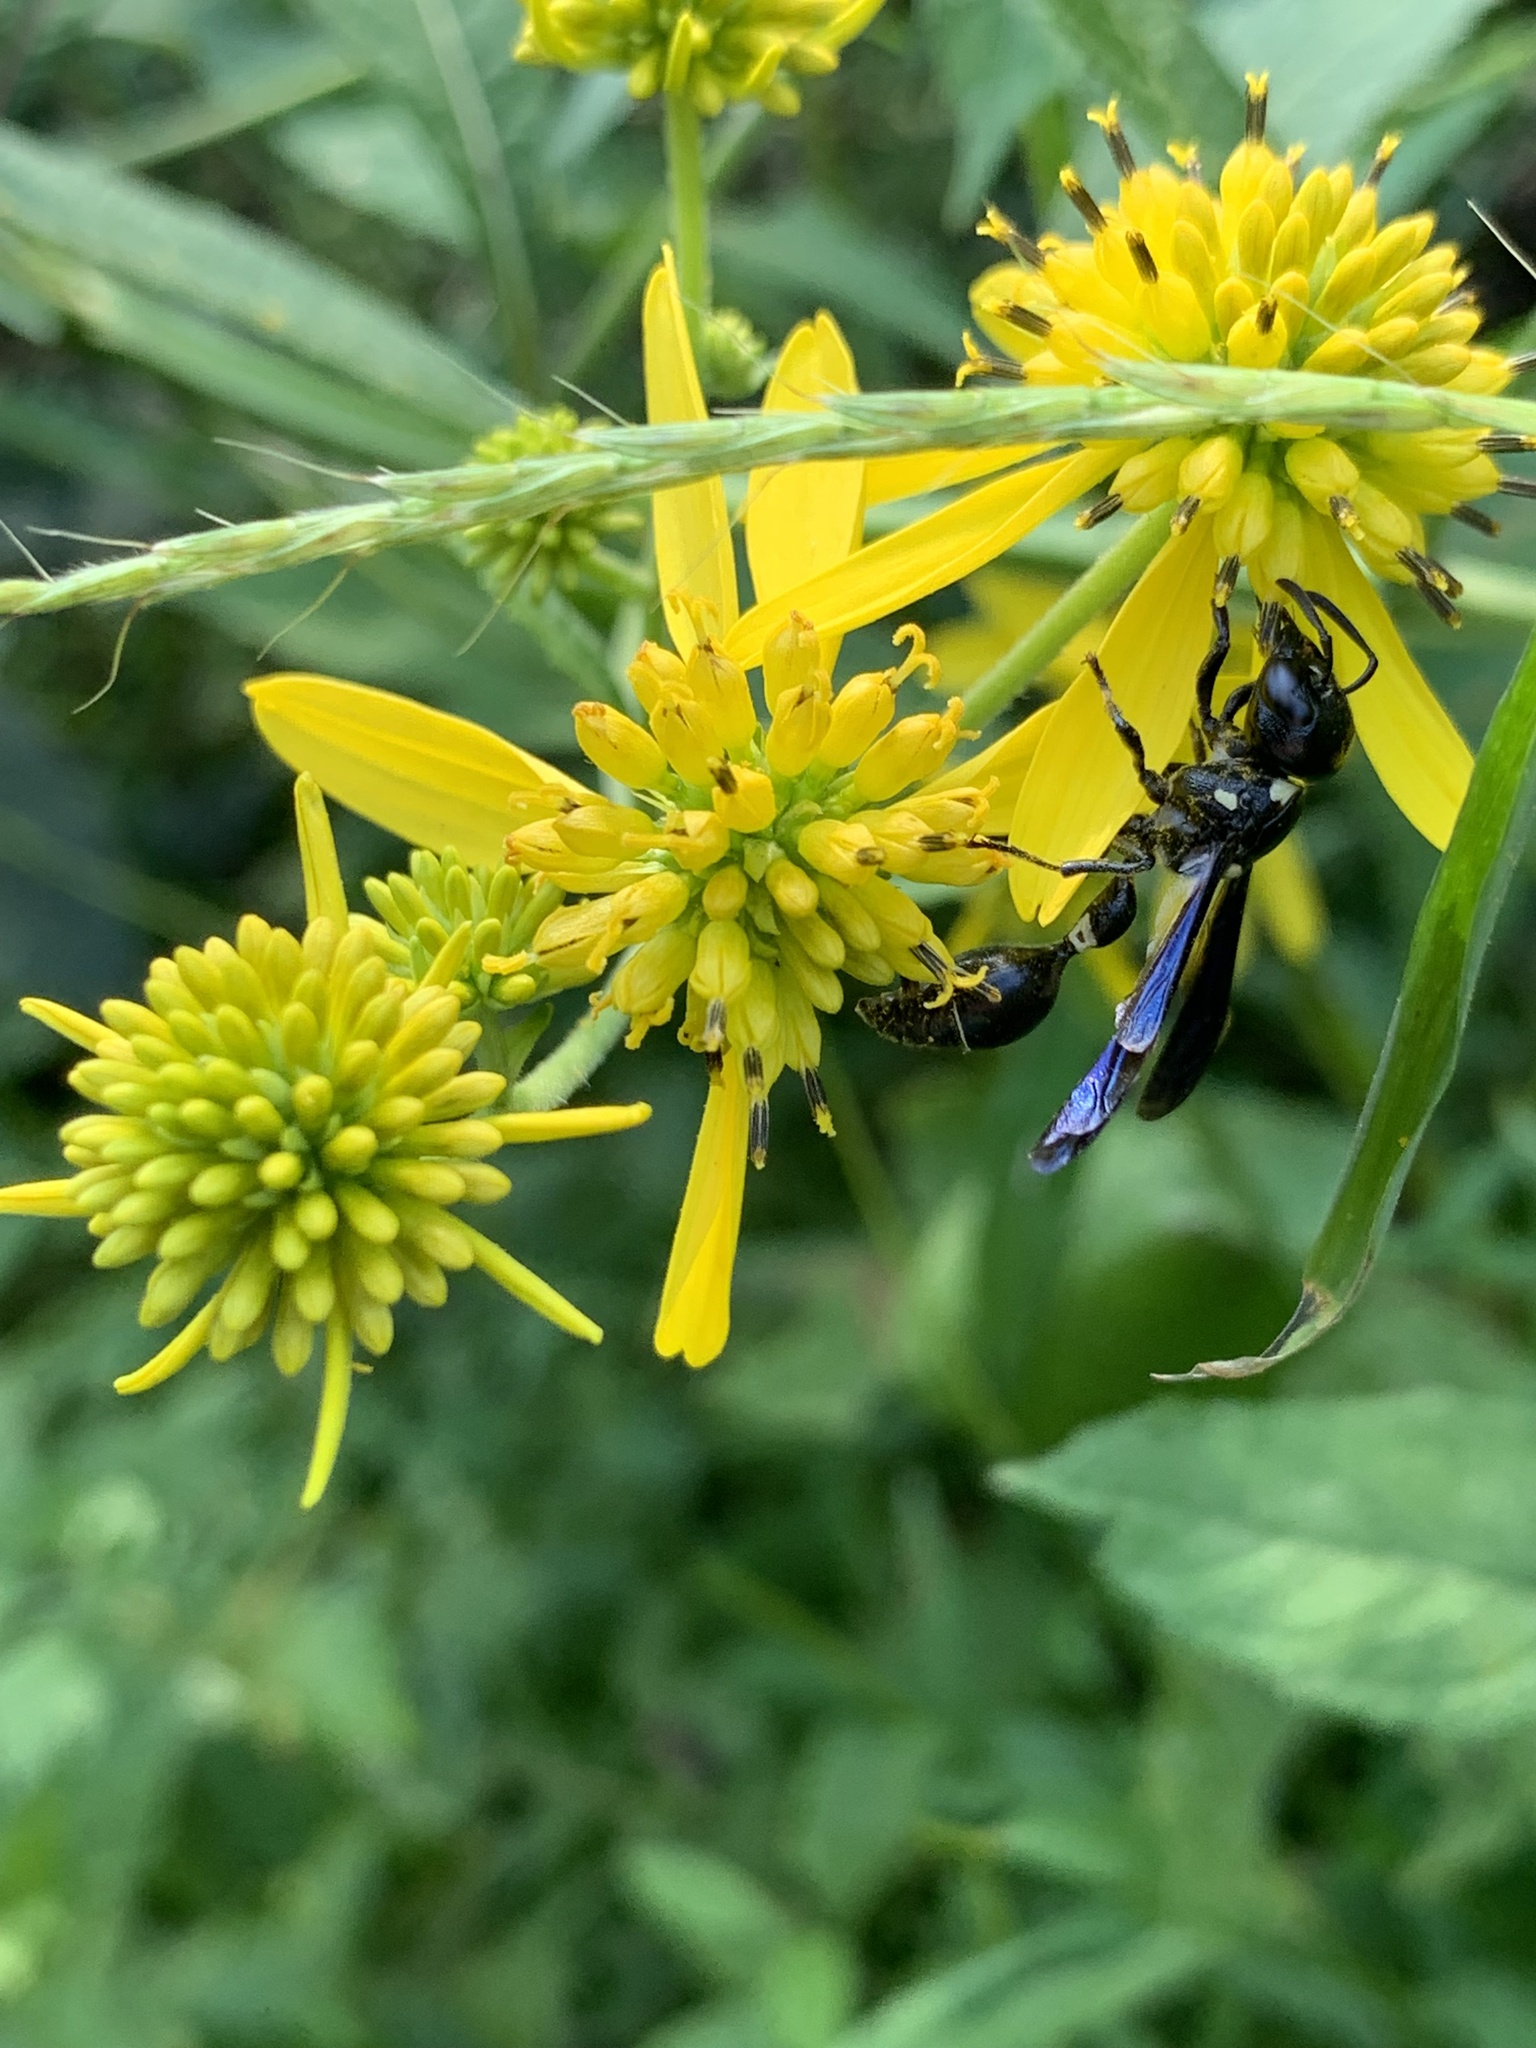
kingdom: Animalia
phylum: Arthropoda
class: Insecta
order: Hymenoptera
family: Eumenidae
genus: Zethus
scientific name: Zethus spinipes
